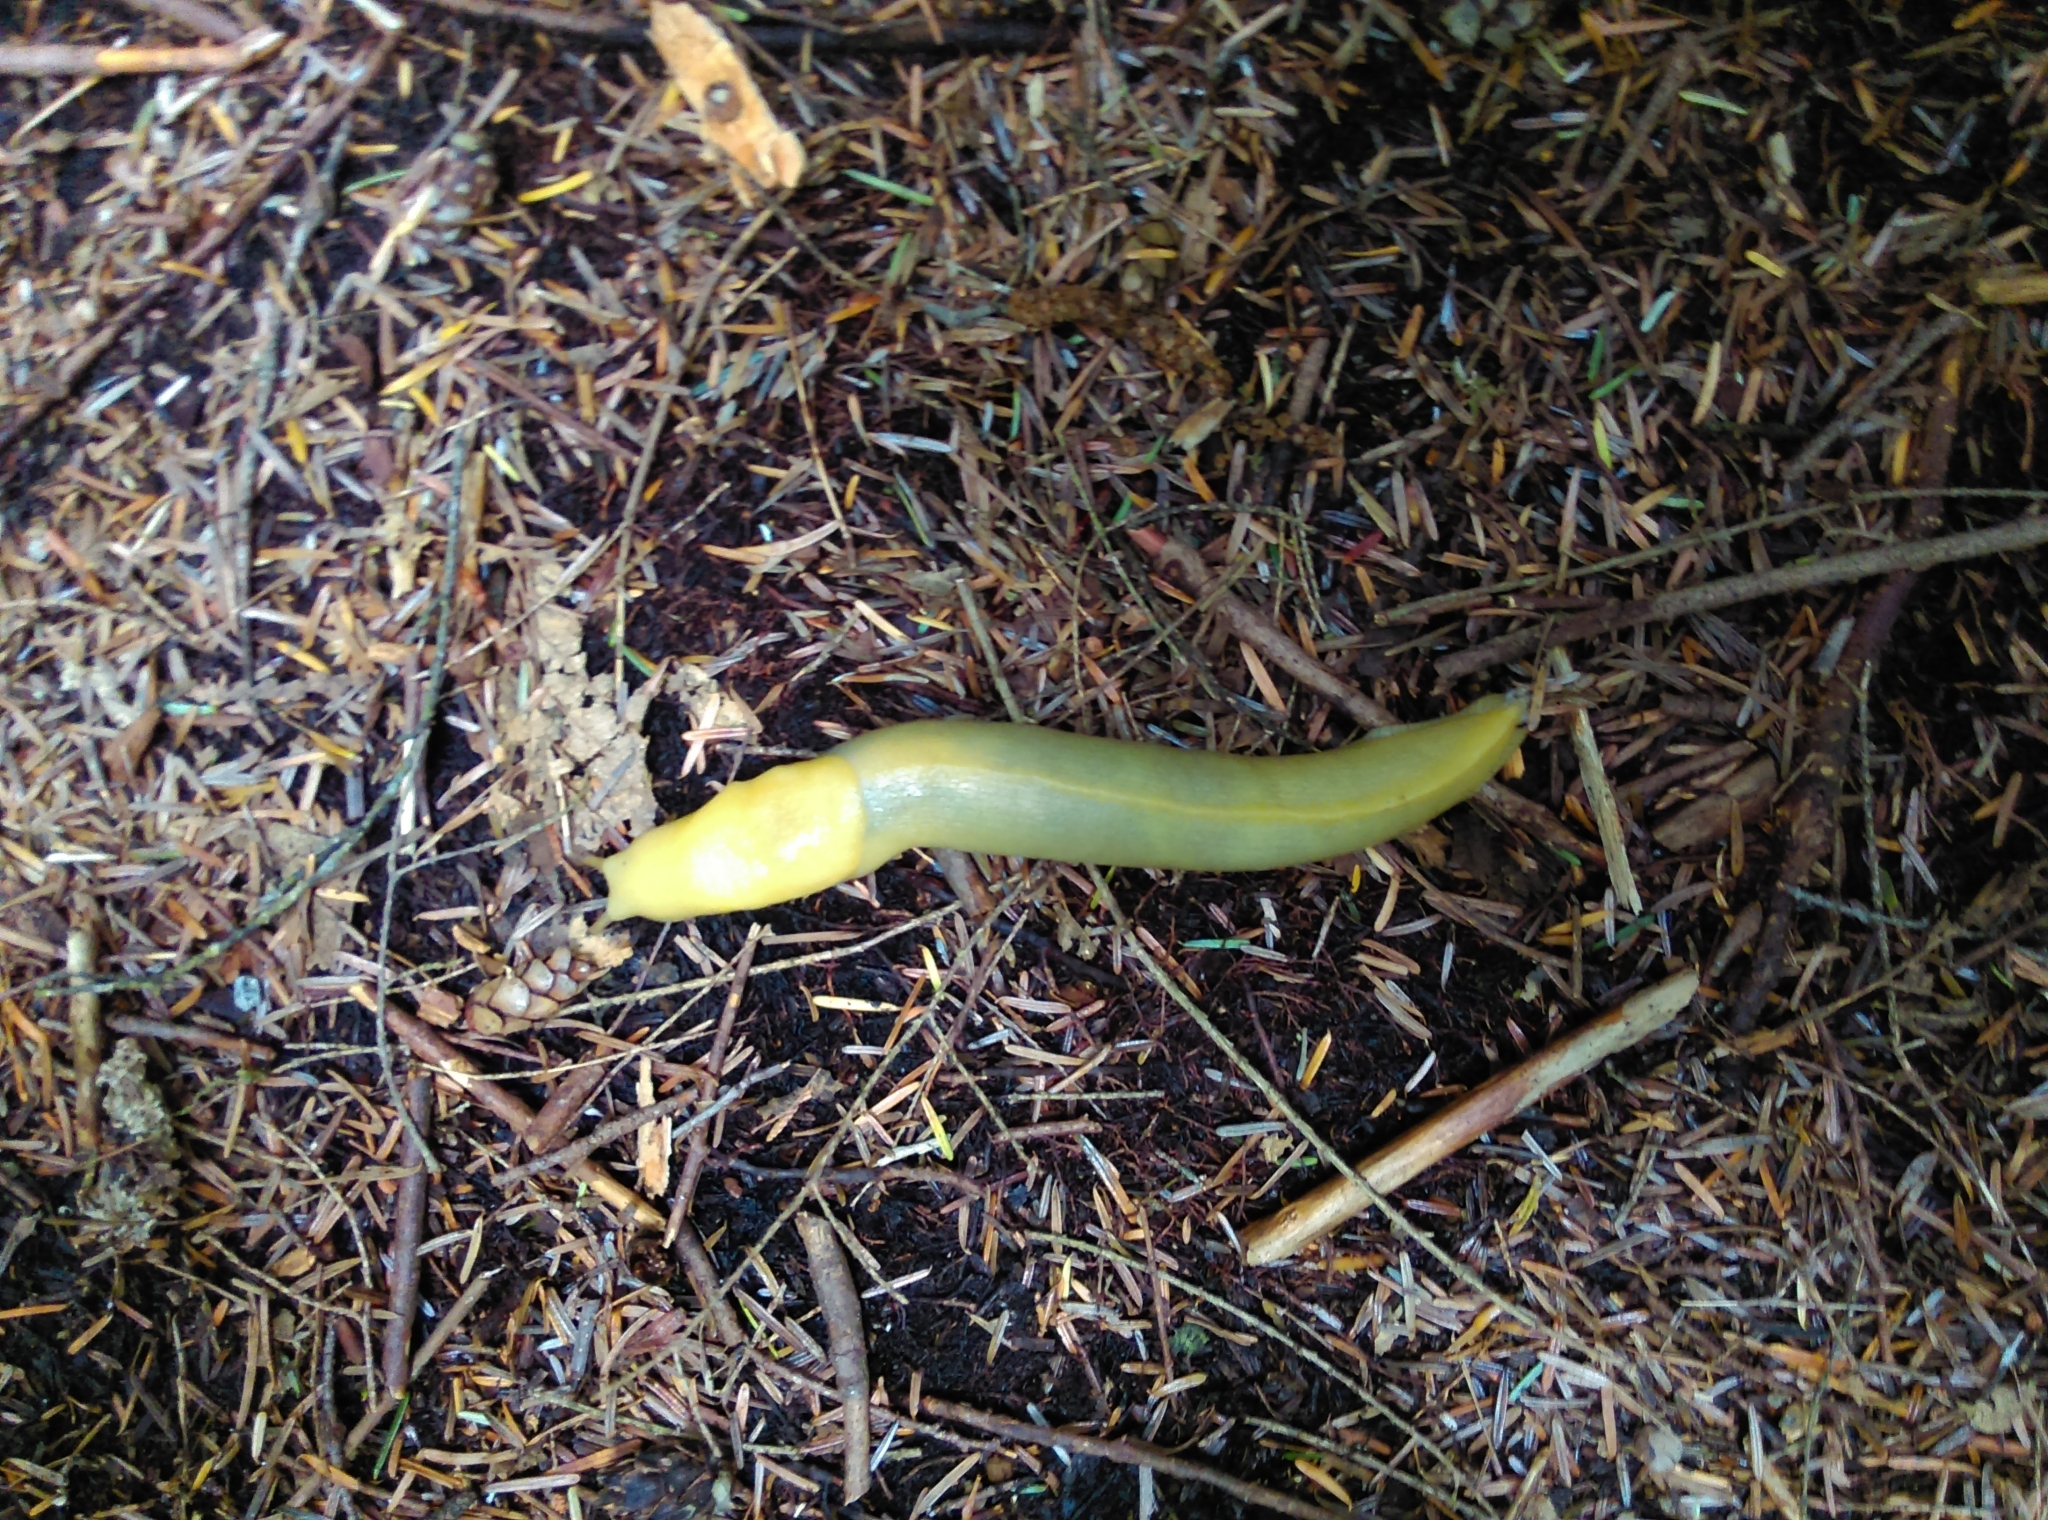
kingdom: Animalia
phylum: Mollusca
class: Gastropoda
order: Stylommatophora
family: Ariolimacidae
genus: Ariolimax
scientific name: Ariolimax columbianus
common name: Pacific banana slug
